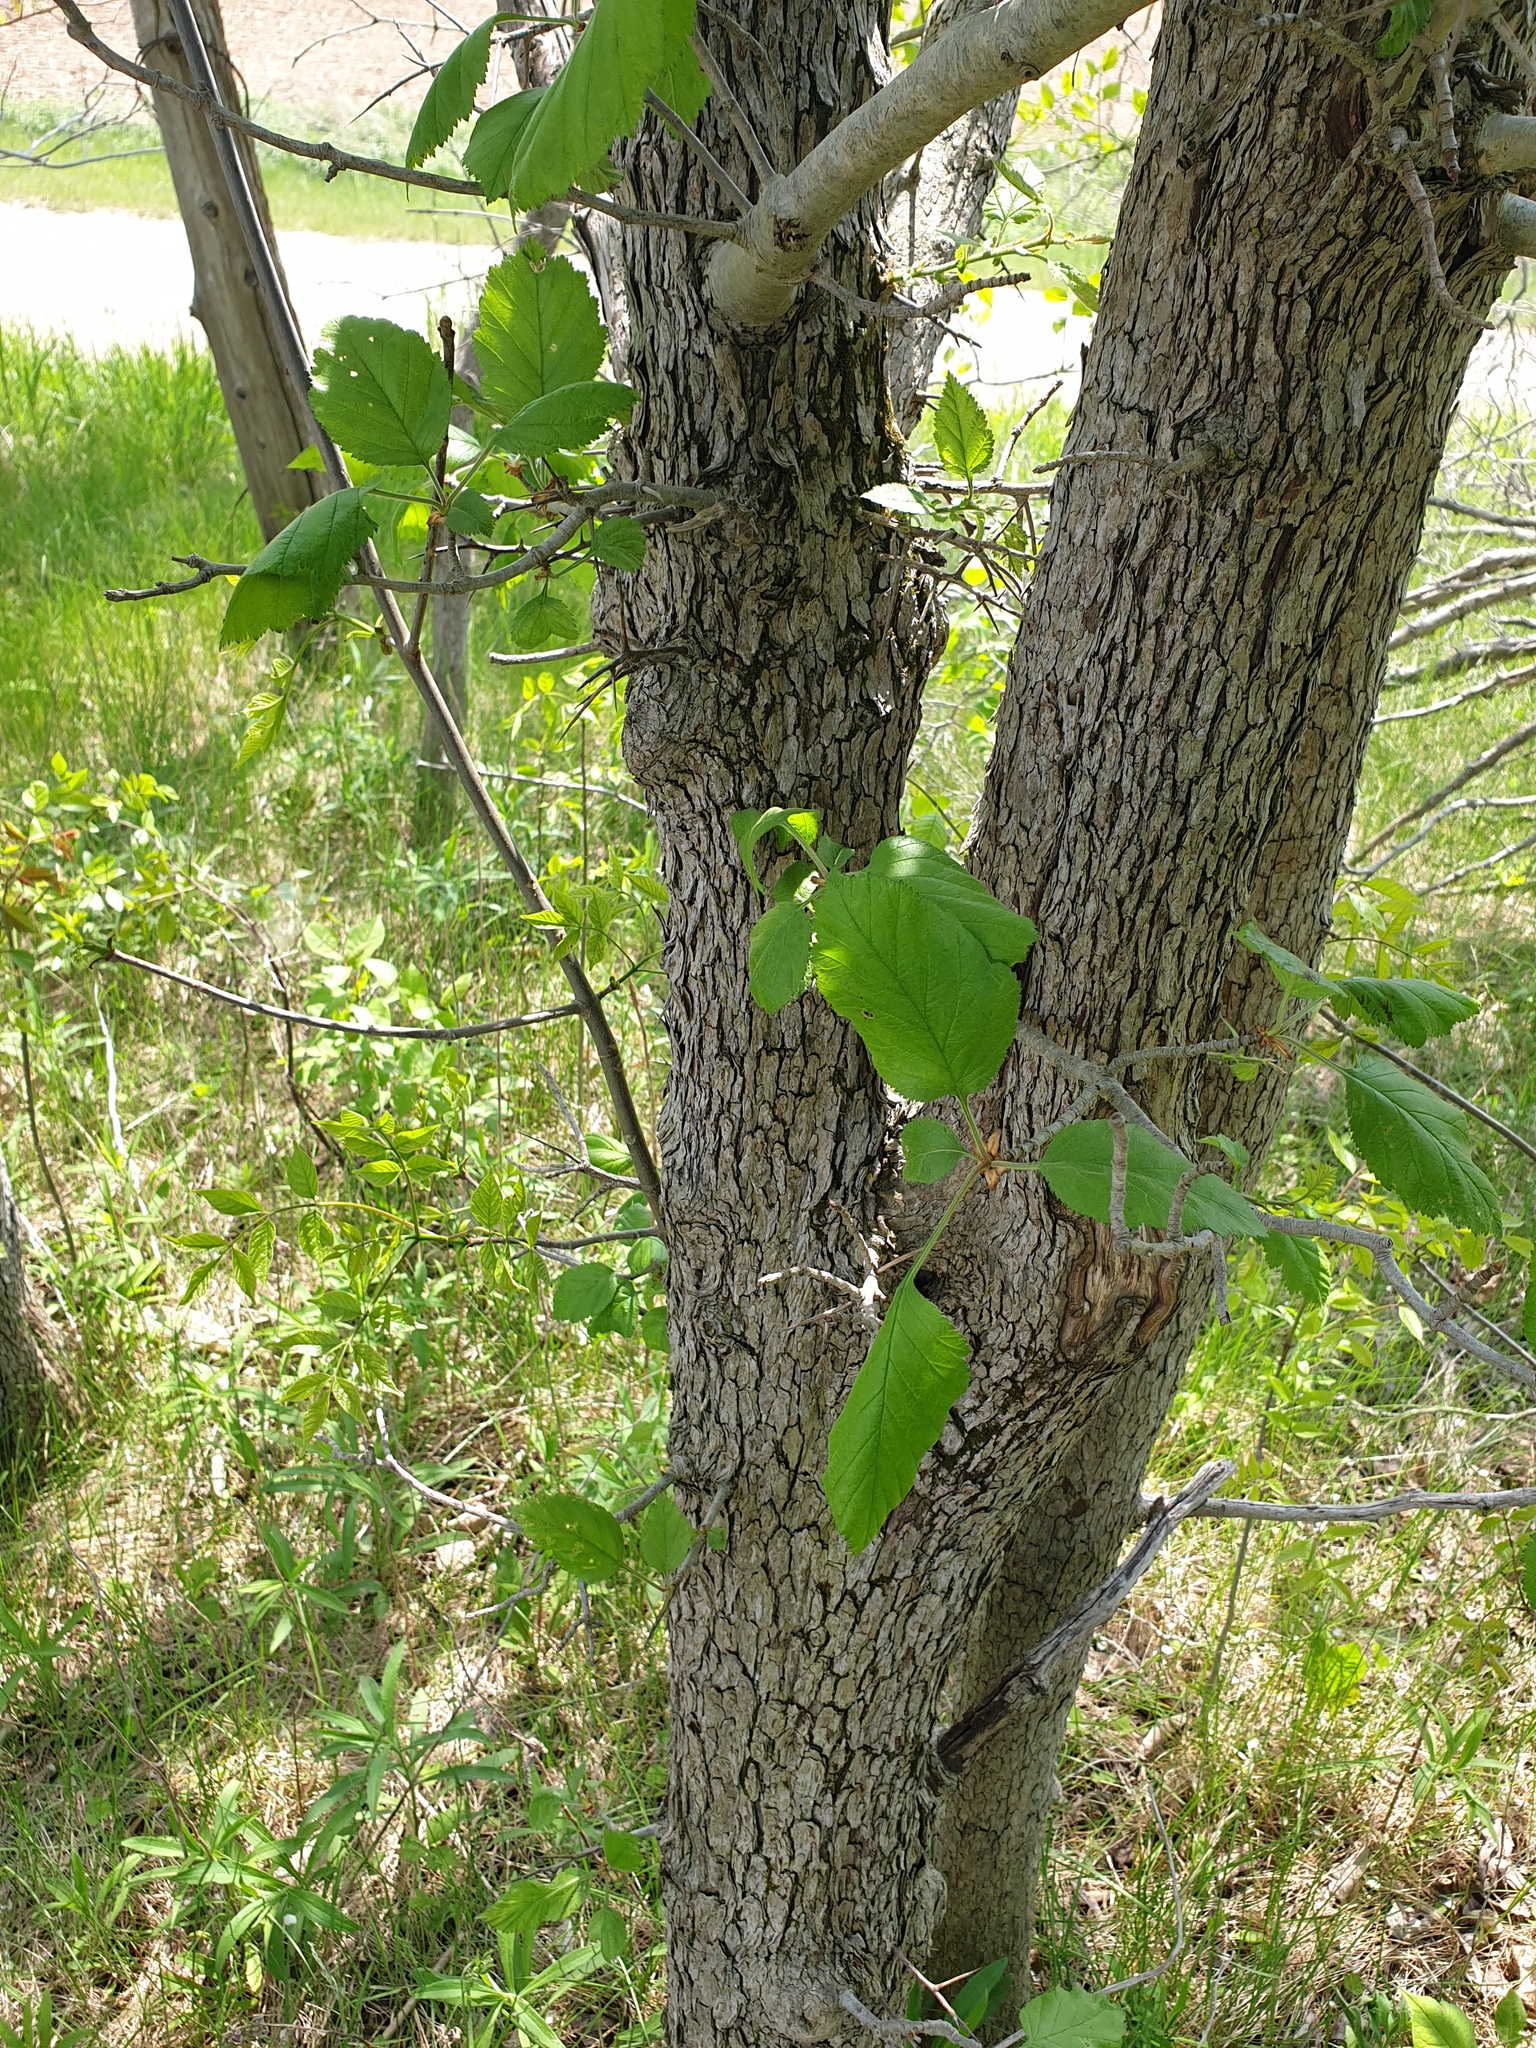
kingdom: Plantae
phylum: Tracheophyta
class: Magnoliopsida
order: Rosales
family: Rosaceae
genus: Crataegus
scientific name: Crataegus mollis
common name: Downy hawthorn
